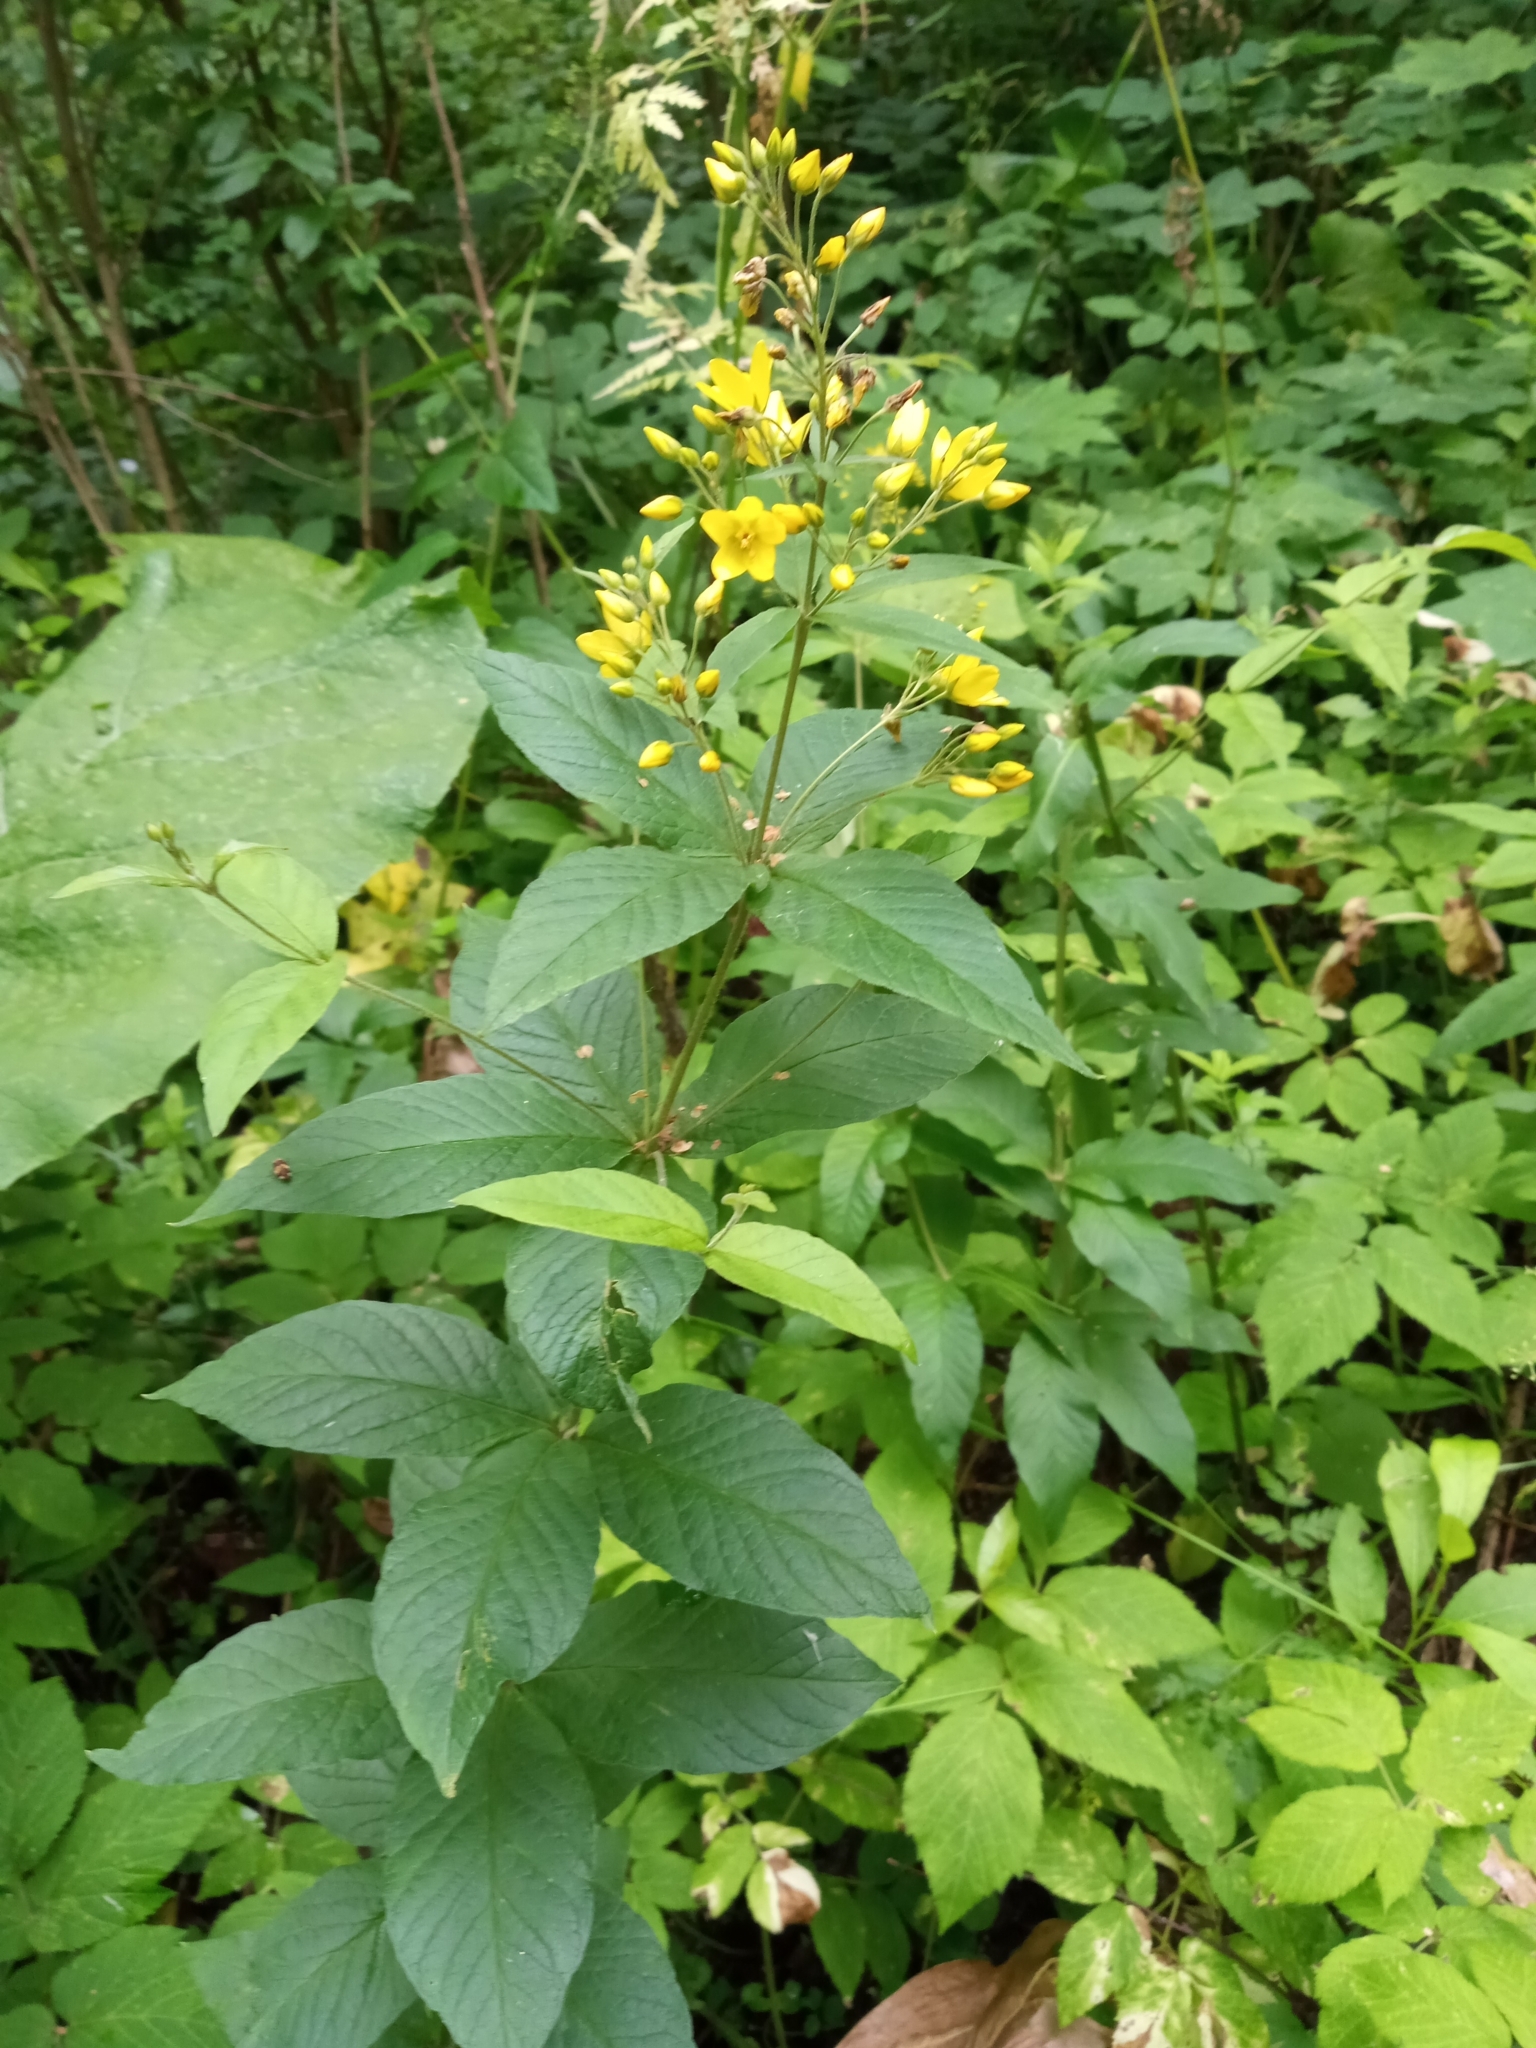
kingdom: Plantae
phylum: Tracheophyta
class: Magnoliopsida
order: Ericales
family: Primulaceae
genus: Lysimachia
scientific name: Lysimachia vulgaris
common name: Yellow loosestrife
